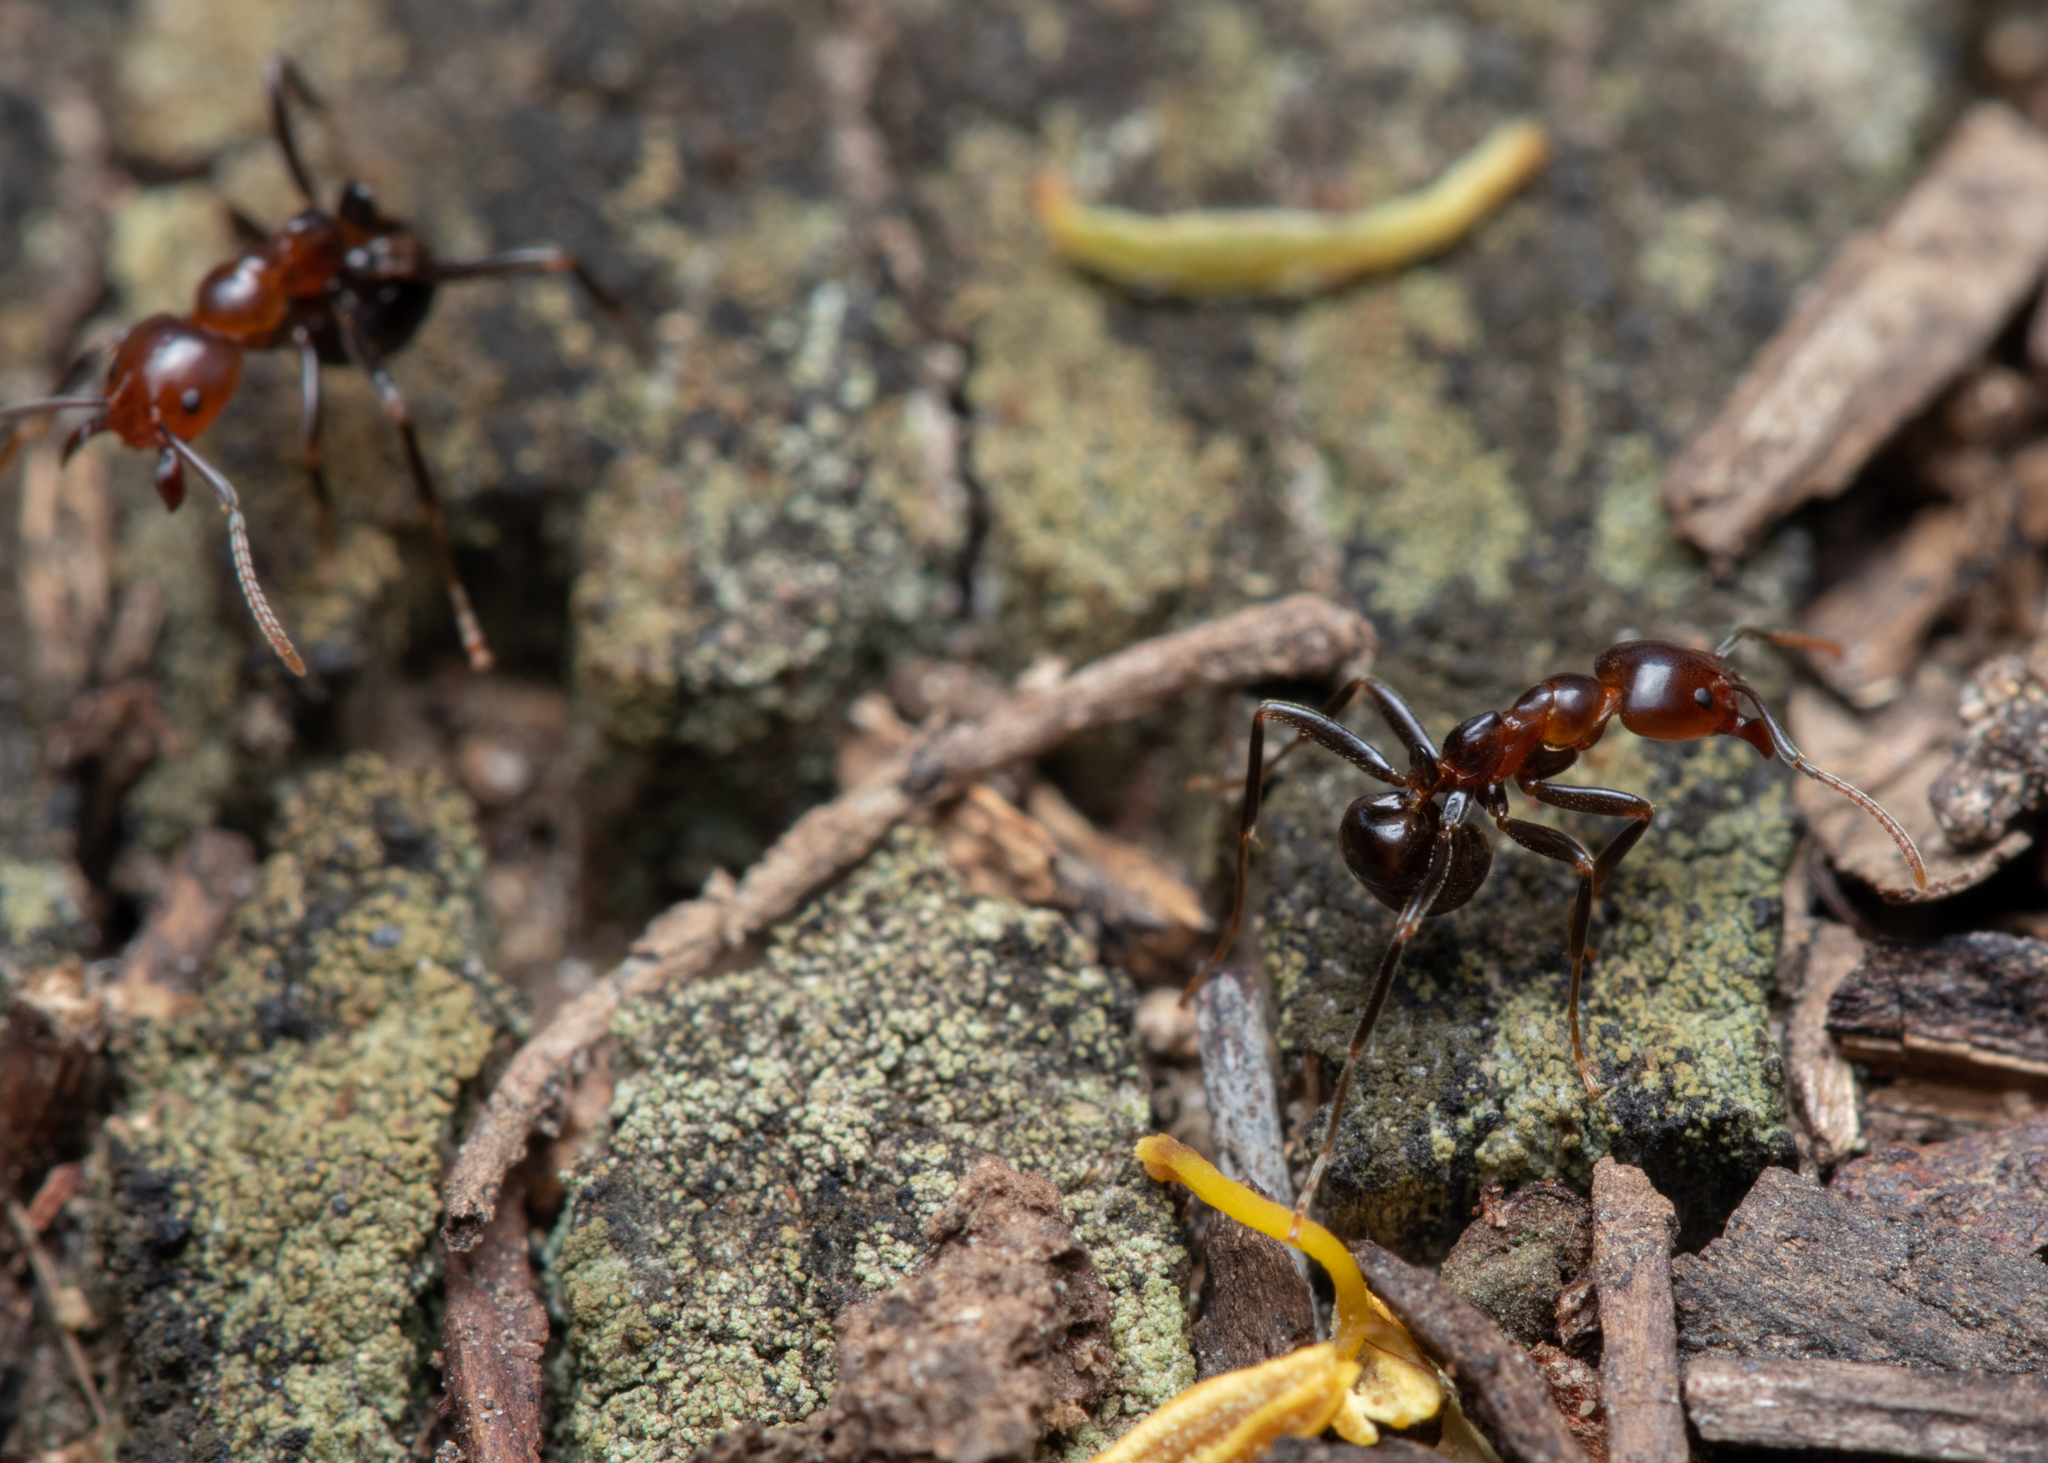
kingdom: Animalia
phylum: Arthropoda
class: Insecta
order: Hymenoptera
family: Formicidae
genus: Papyrius
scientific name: Papyrius nitidus
